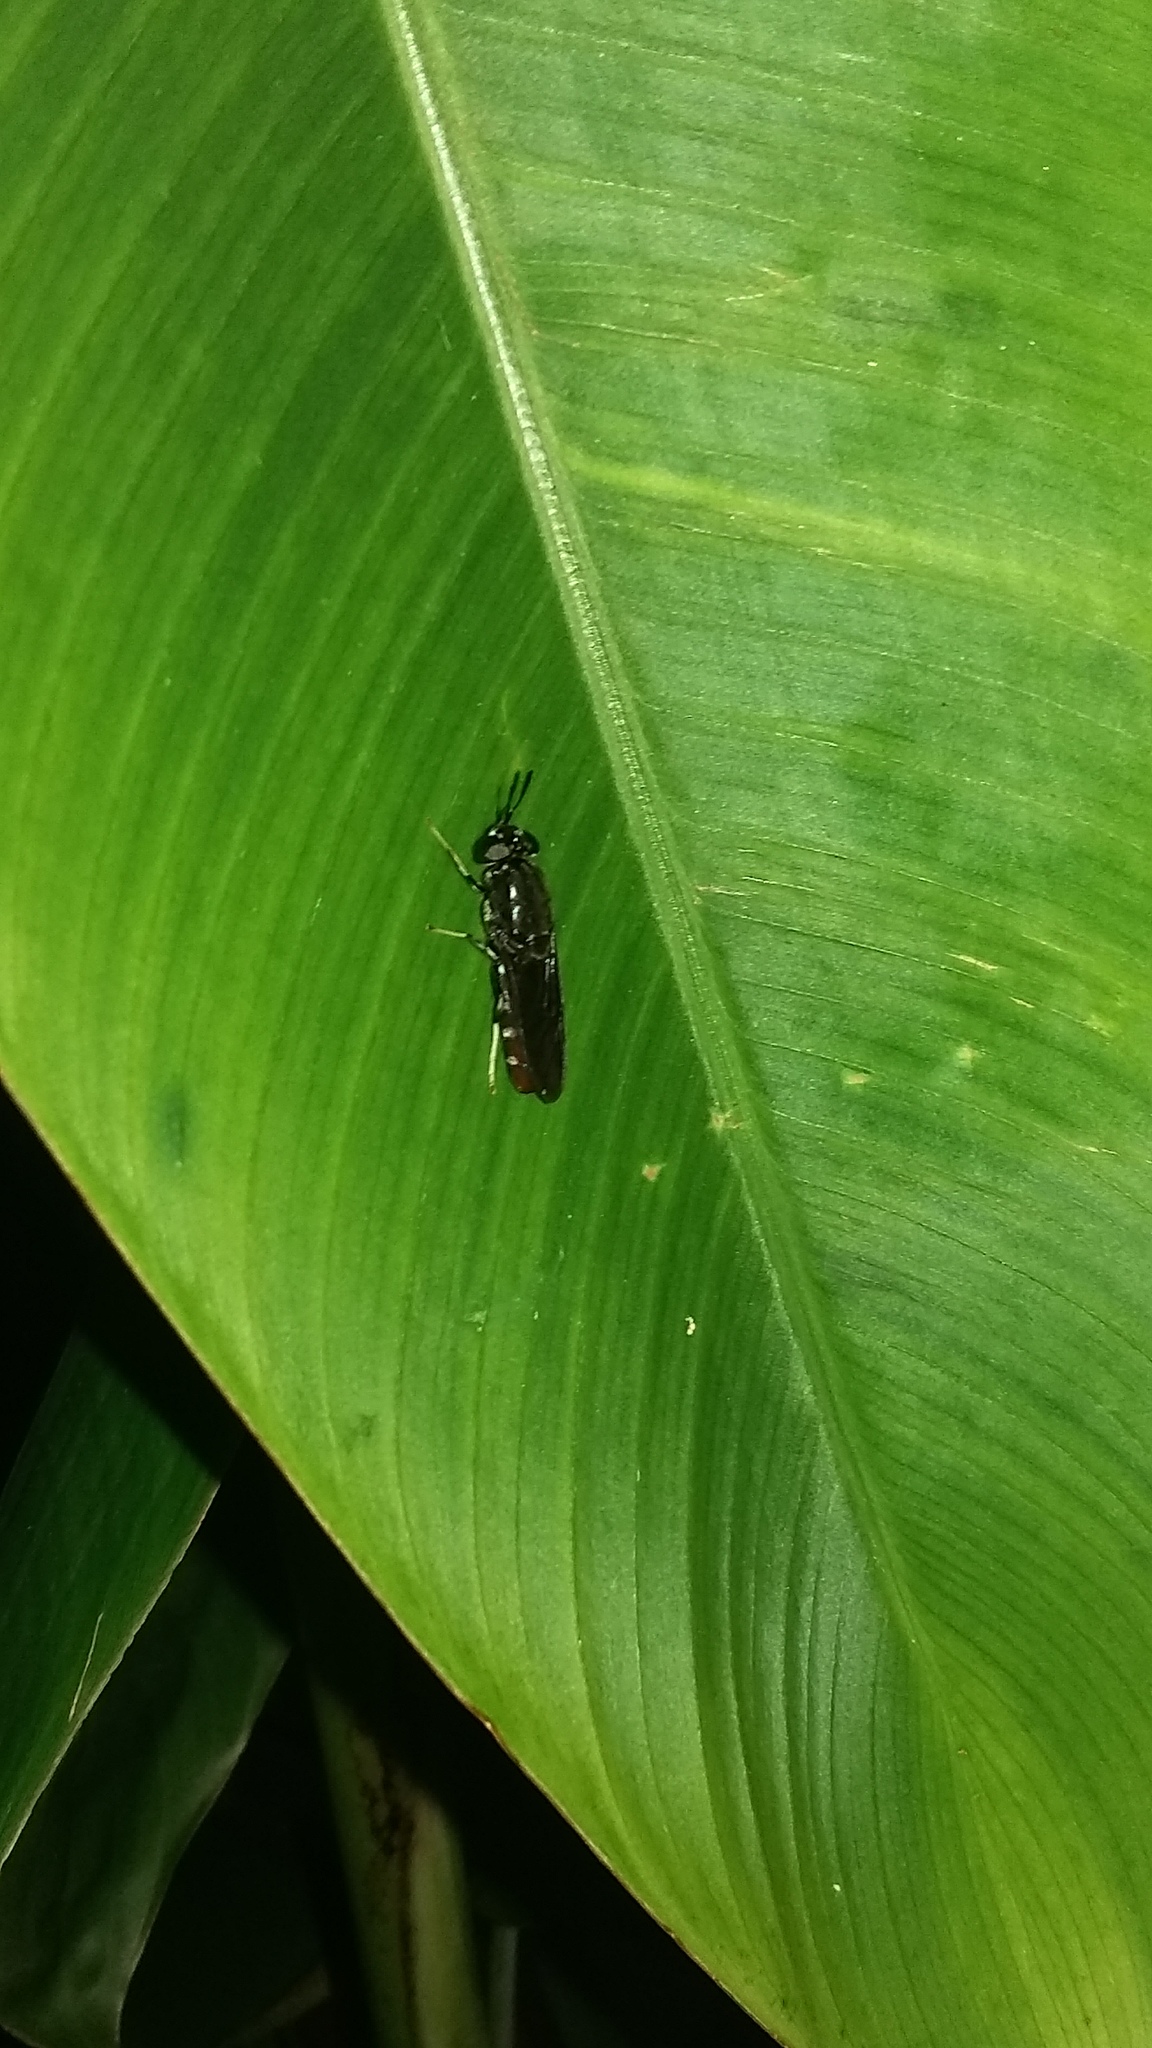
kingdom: Animalia
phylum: Arthropoda
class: Insecta
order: Diptera
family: Stratiomyidae
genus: Hermetia
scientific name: Hermetia illucens
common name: Black soldier fly
